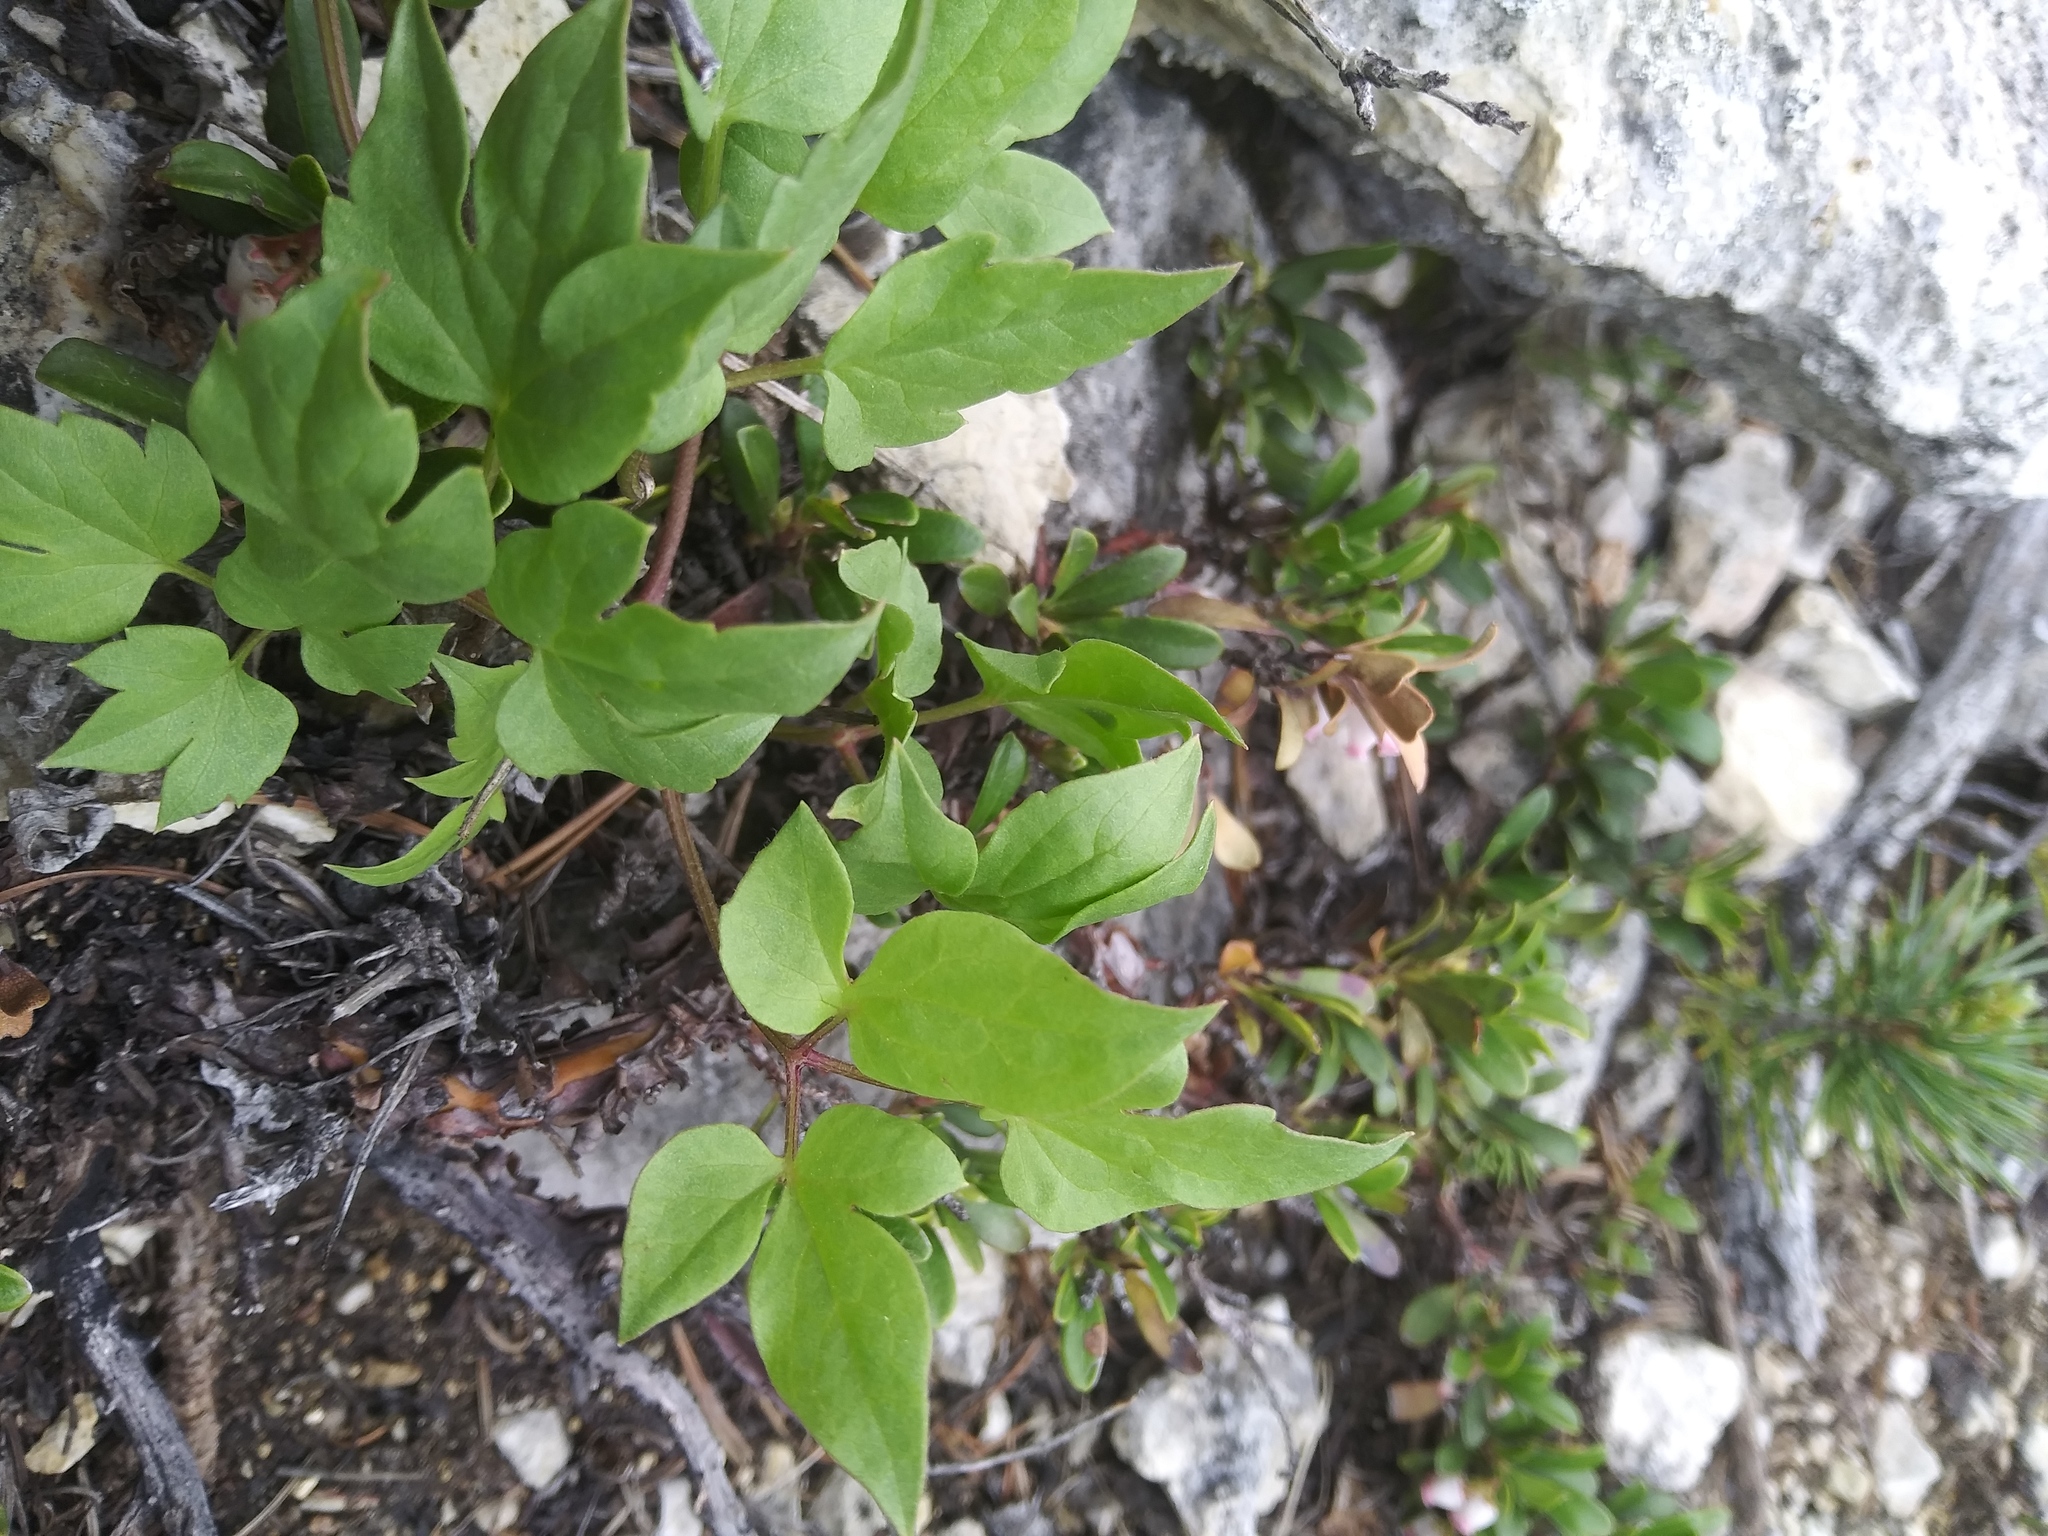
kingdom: Plantae
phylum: Tracheophyta
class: Magnoliopsida
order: Ranunculales
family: Ranunculaceae
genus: Clematis
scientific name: Clematis columbiana
